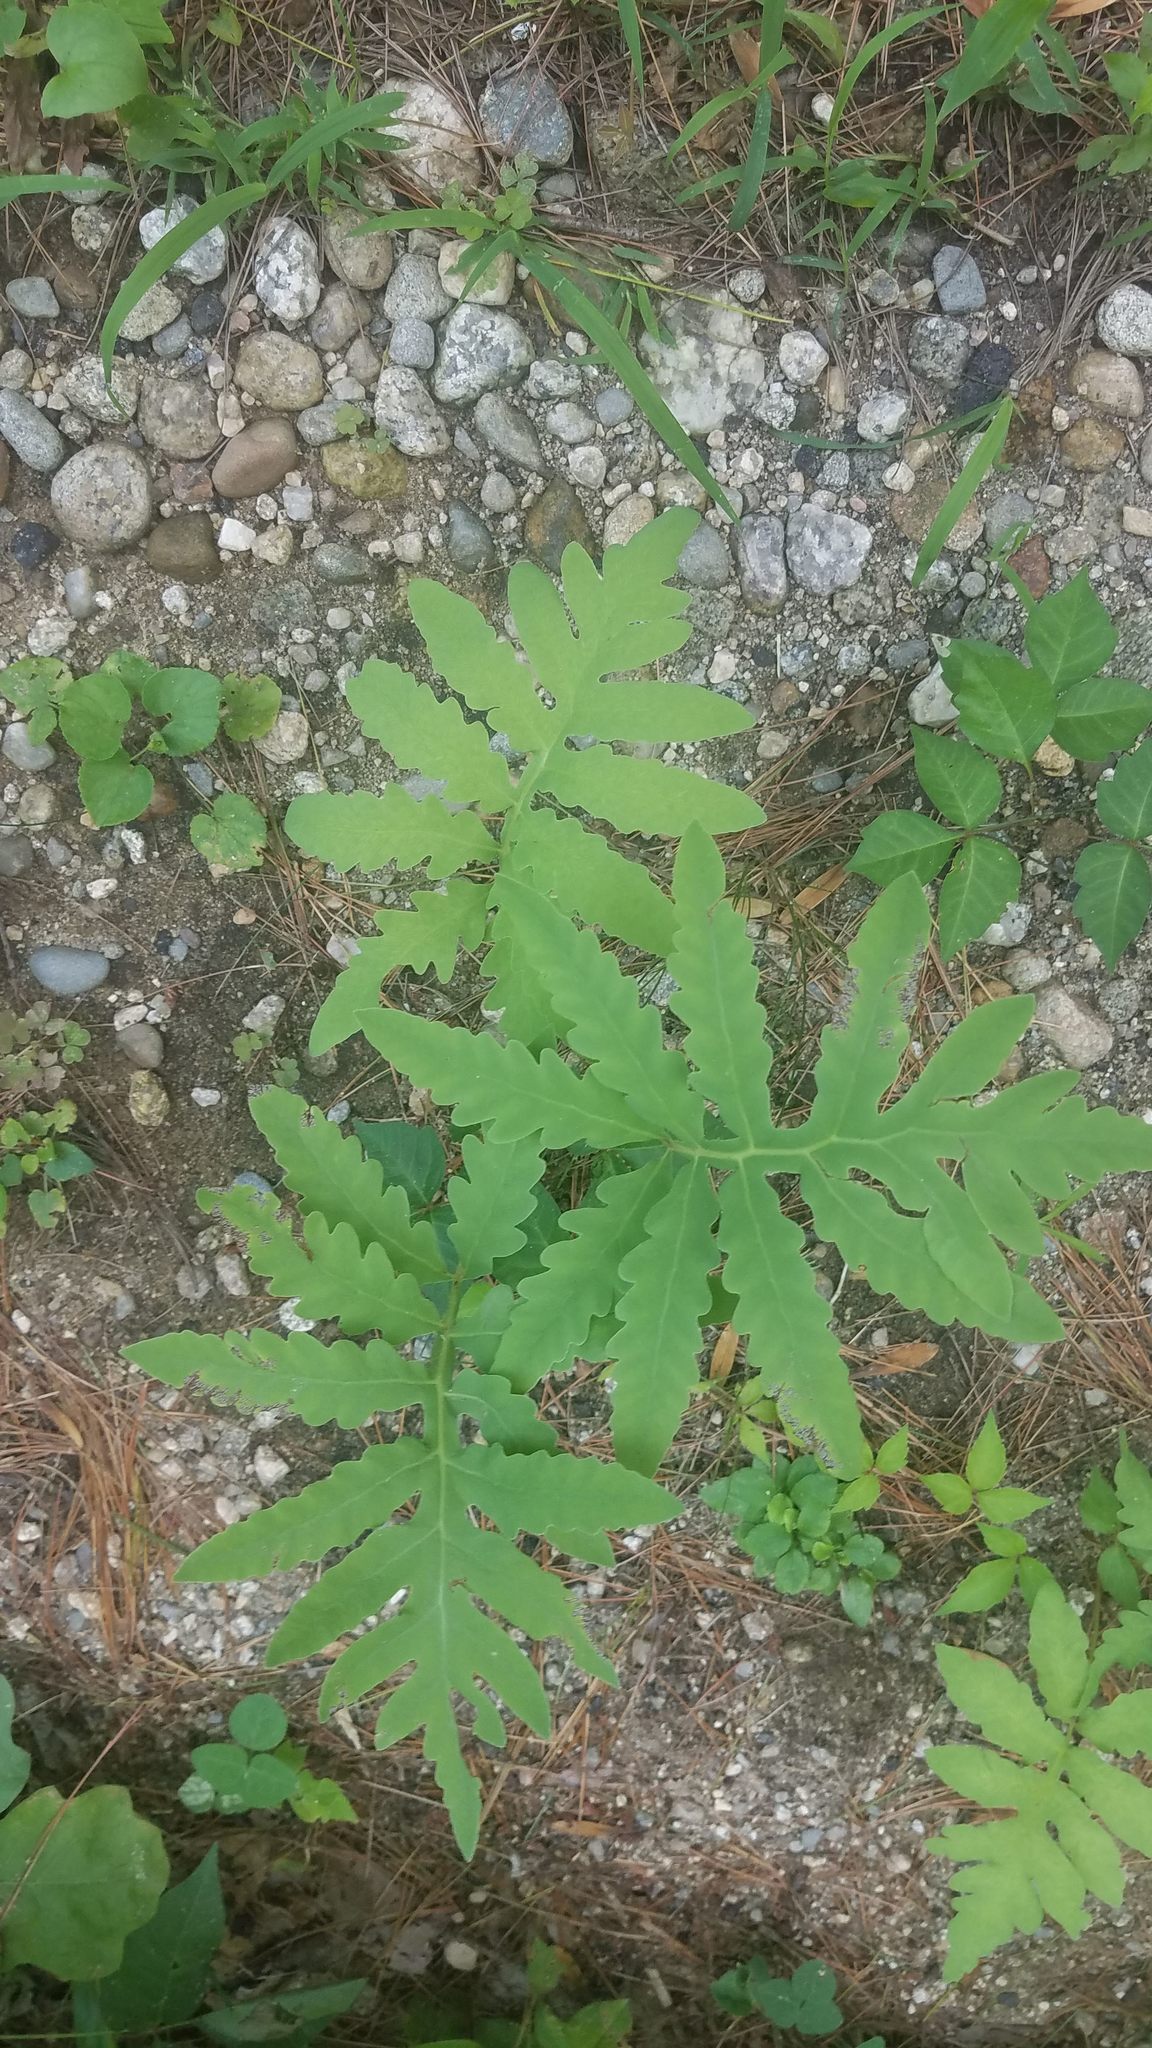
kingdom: Plantae
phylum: Tracheophyta
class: Polypodiopsida
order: Polypodiales
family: Onocleaceae
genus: Onoclea
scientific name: Onoclea sensibilis
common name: Sensitive fern
